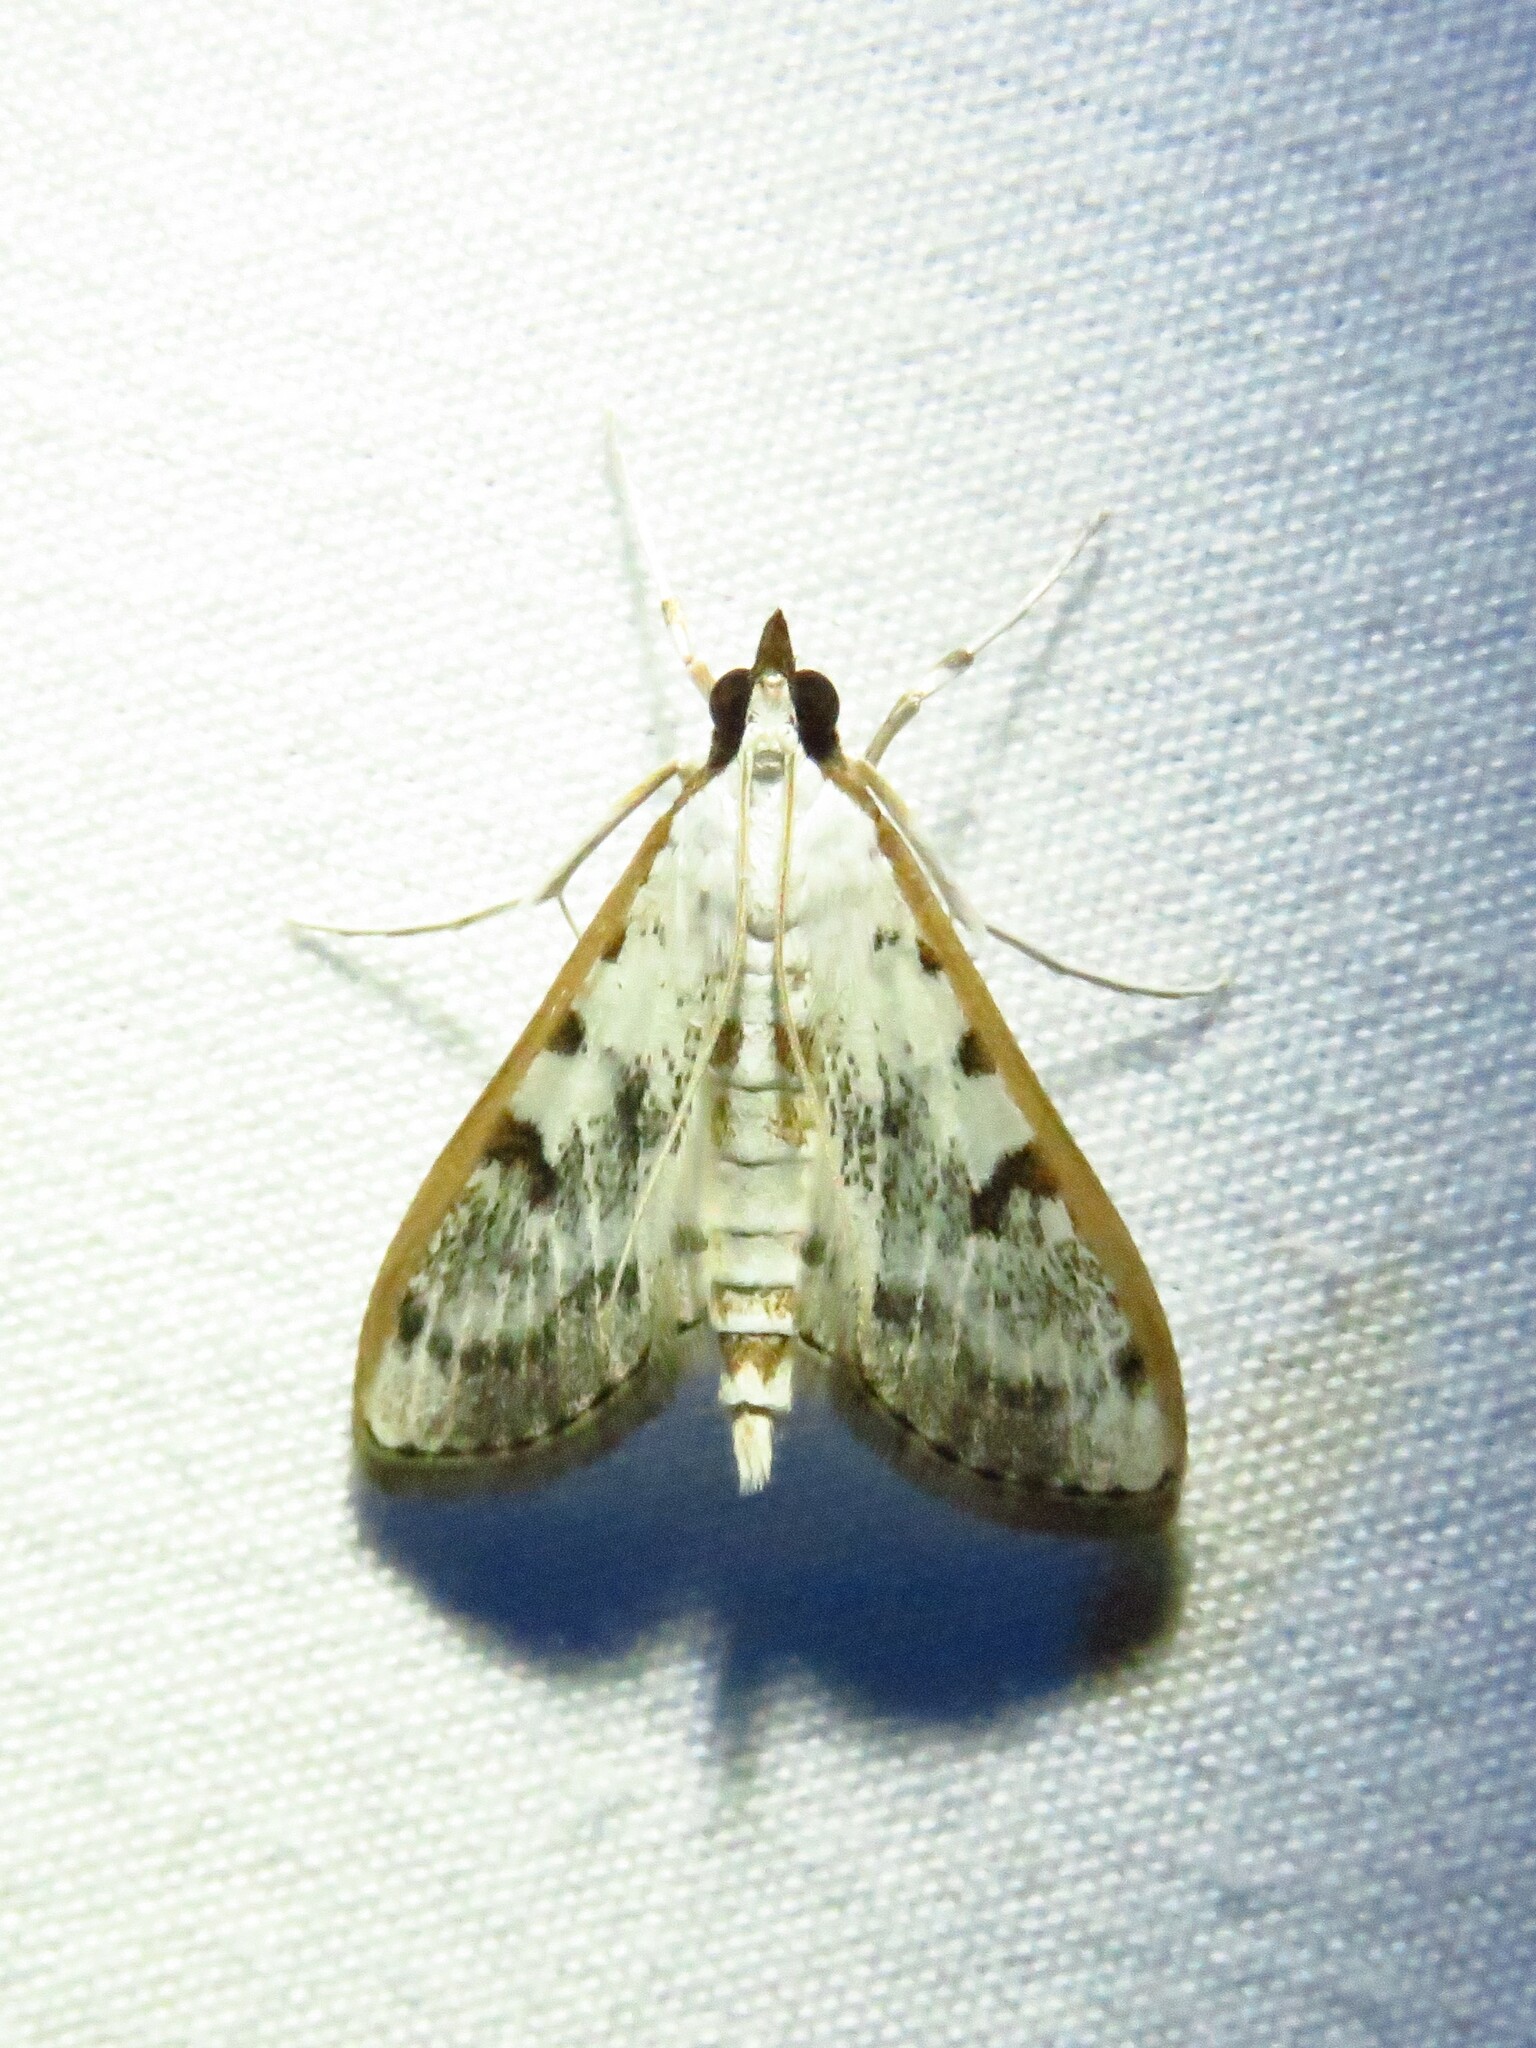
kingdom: Animalia
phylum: Arthropoda
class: Insecta
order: Lepidoptera
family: Crambidae
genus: Palpita
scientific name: Palpita gracilalis
